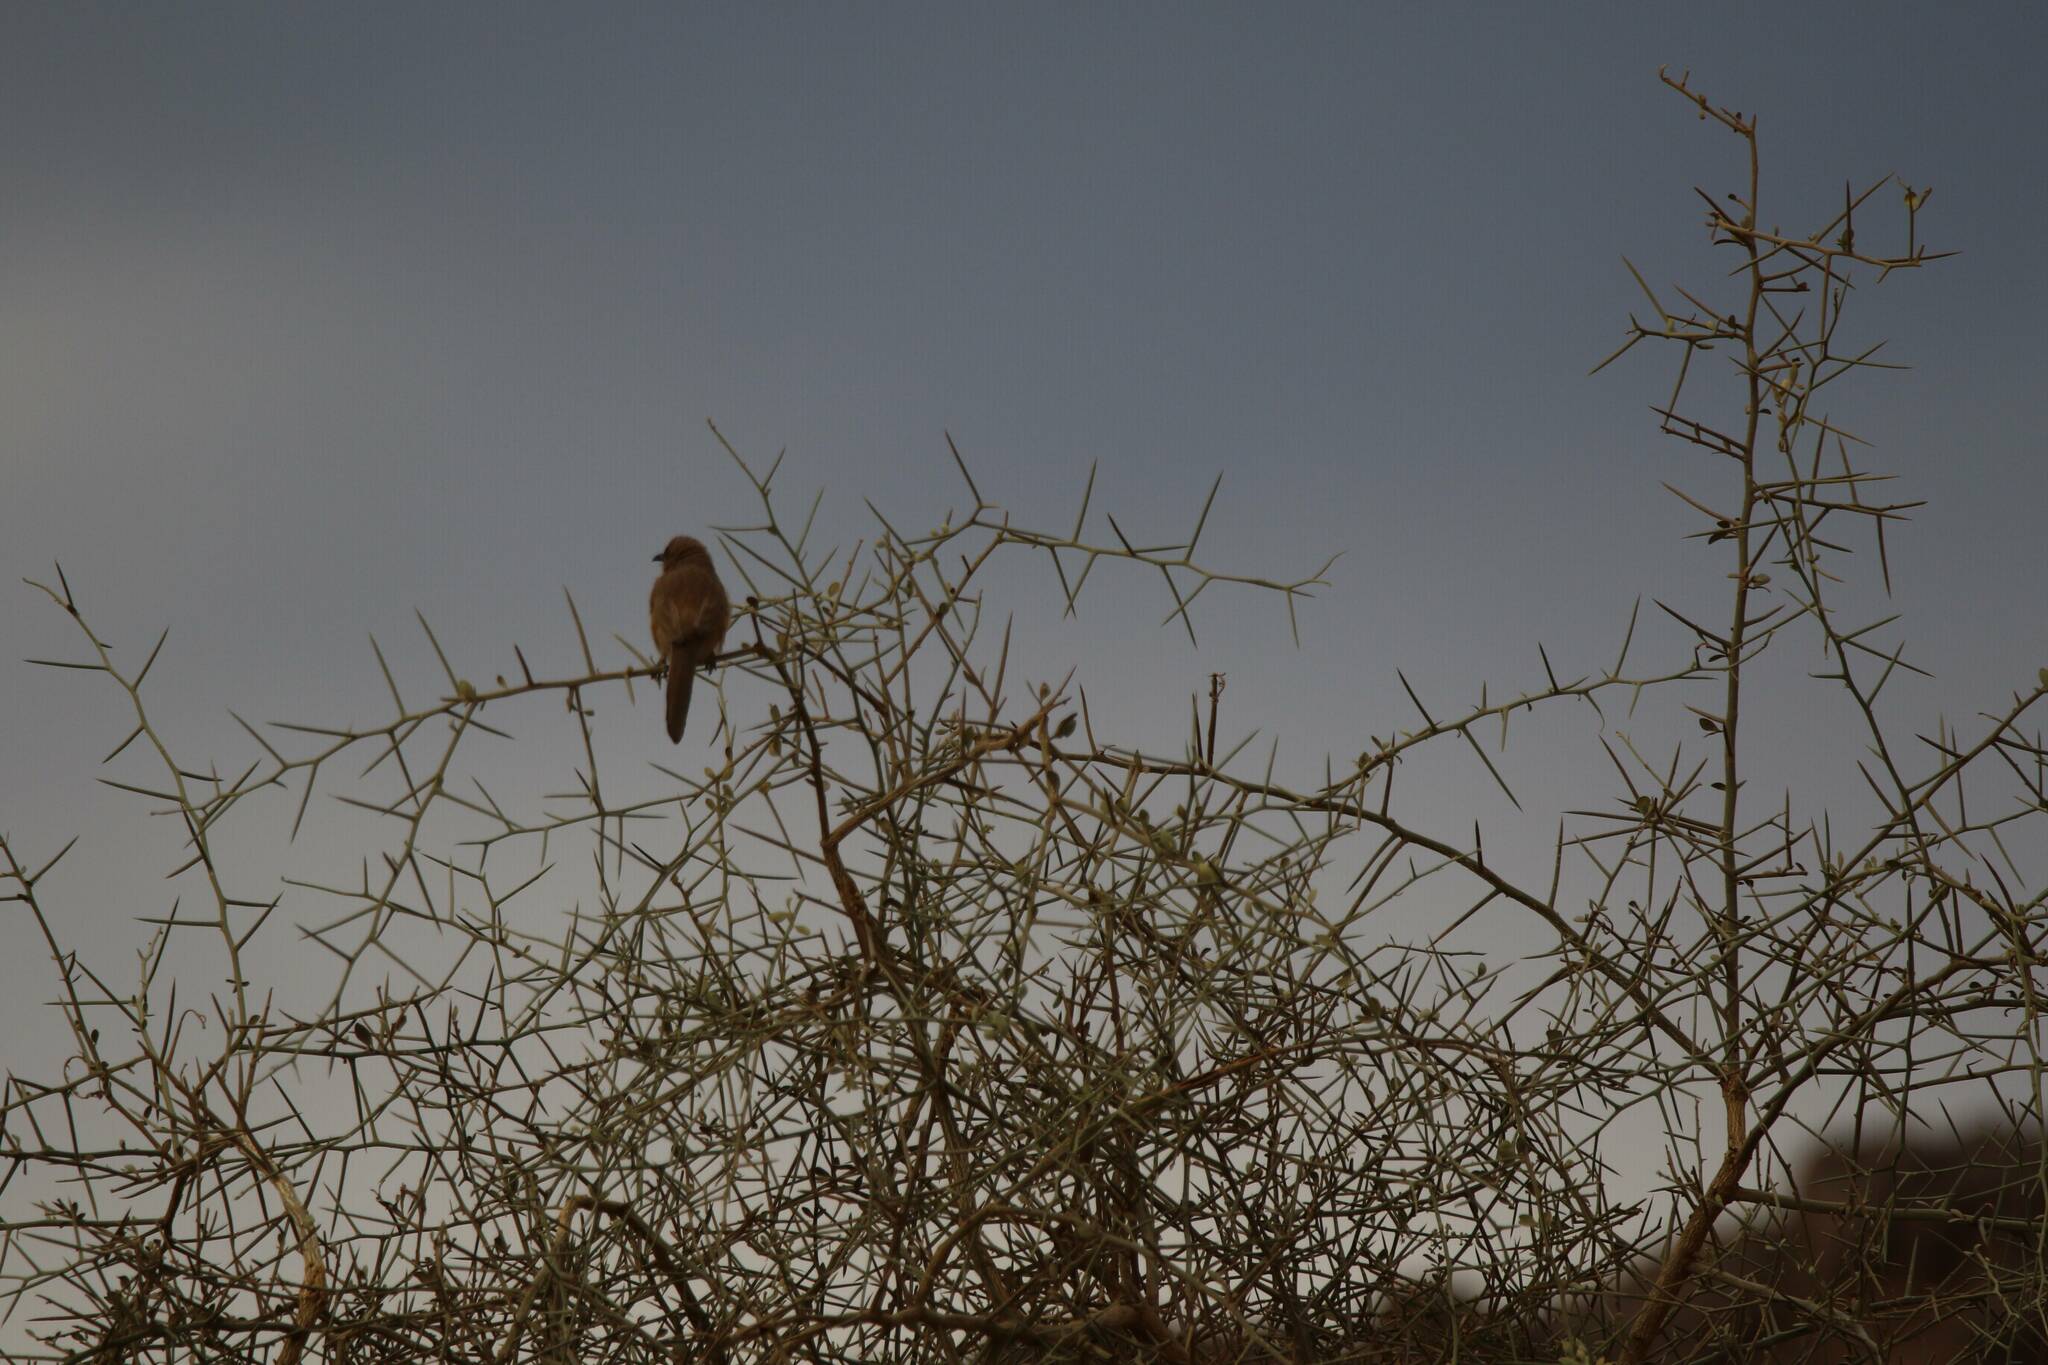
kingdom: Animalia
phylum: Chordata
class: Aves
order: Passeriformes
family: Leiothrichidae
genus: Turdoides
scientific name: Turdoides fulva
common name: Fulvous babbler
